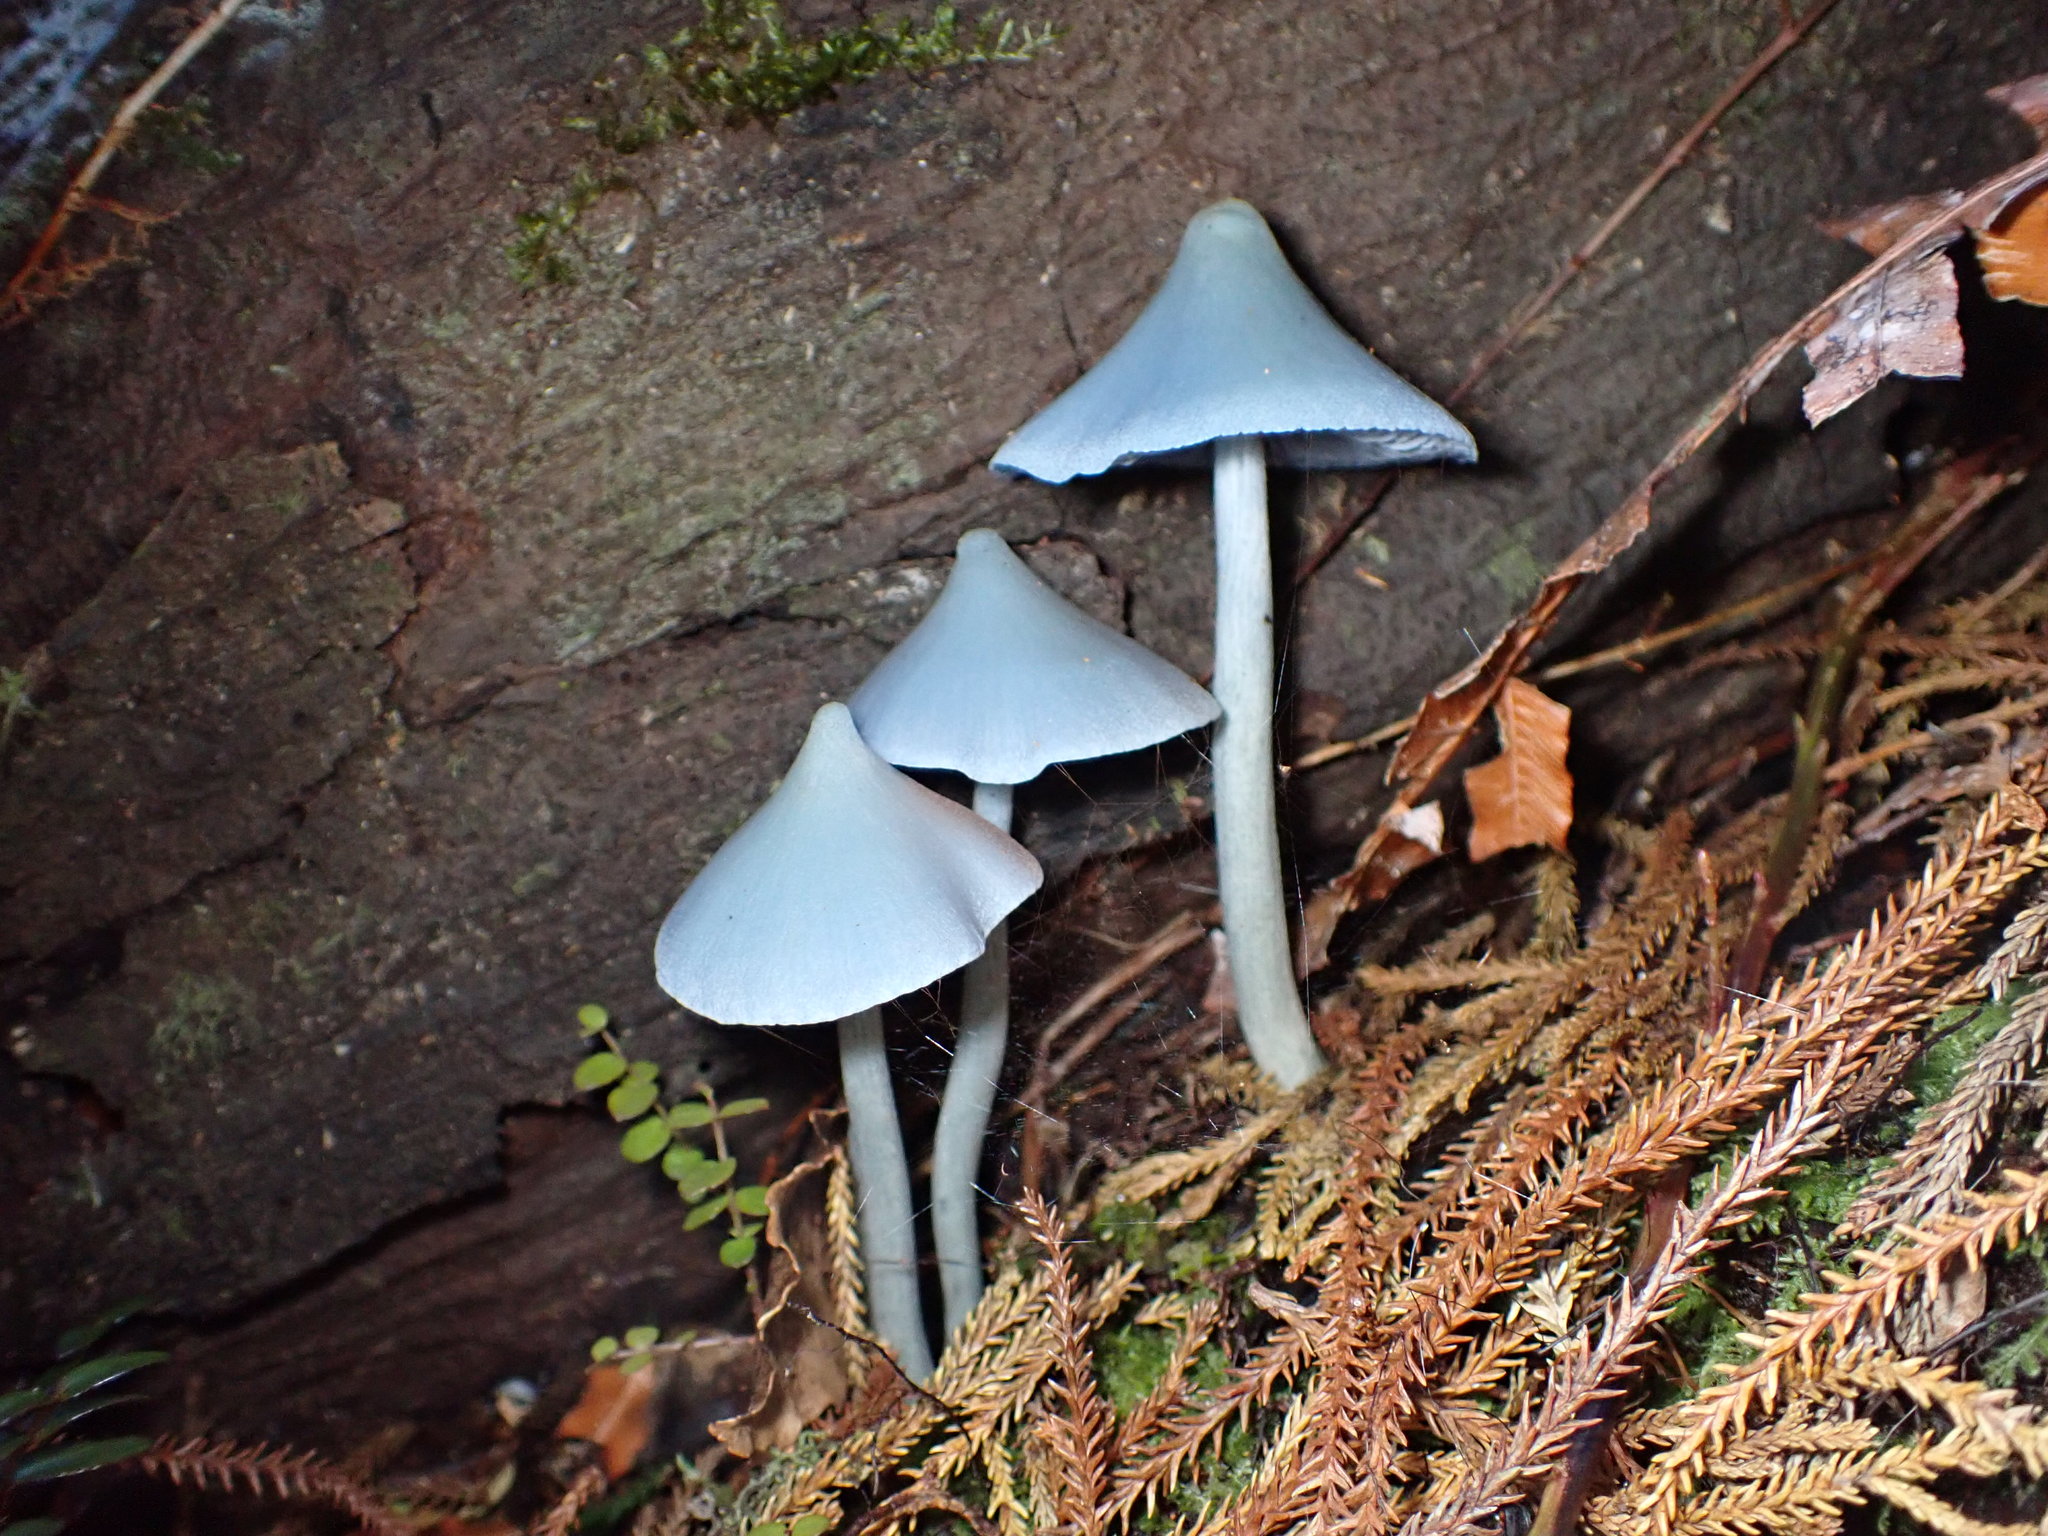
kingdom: Fungi
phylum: Basidiomycota
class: Agaricomycetes
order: Agaricales
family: Entolomataceae
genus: Entoloma
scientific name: Entoloma hochstetteri
